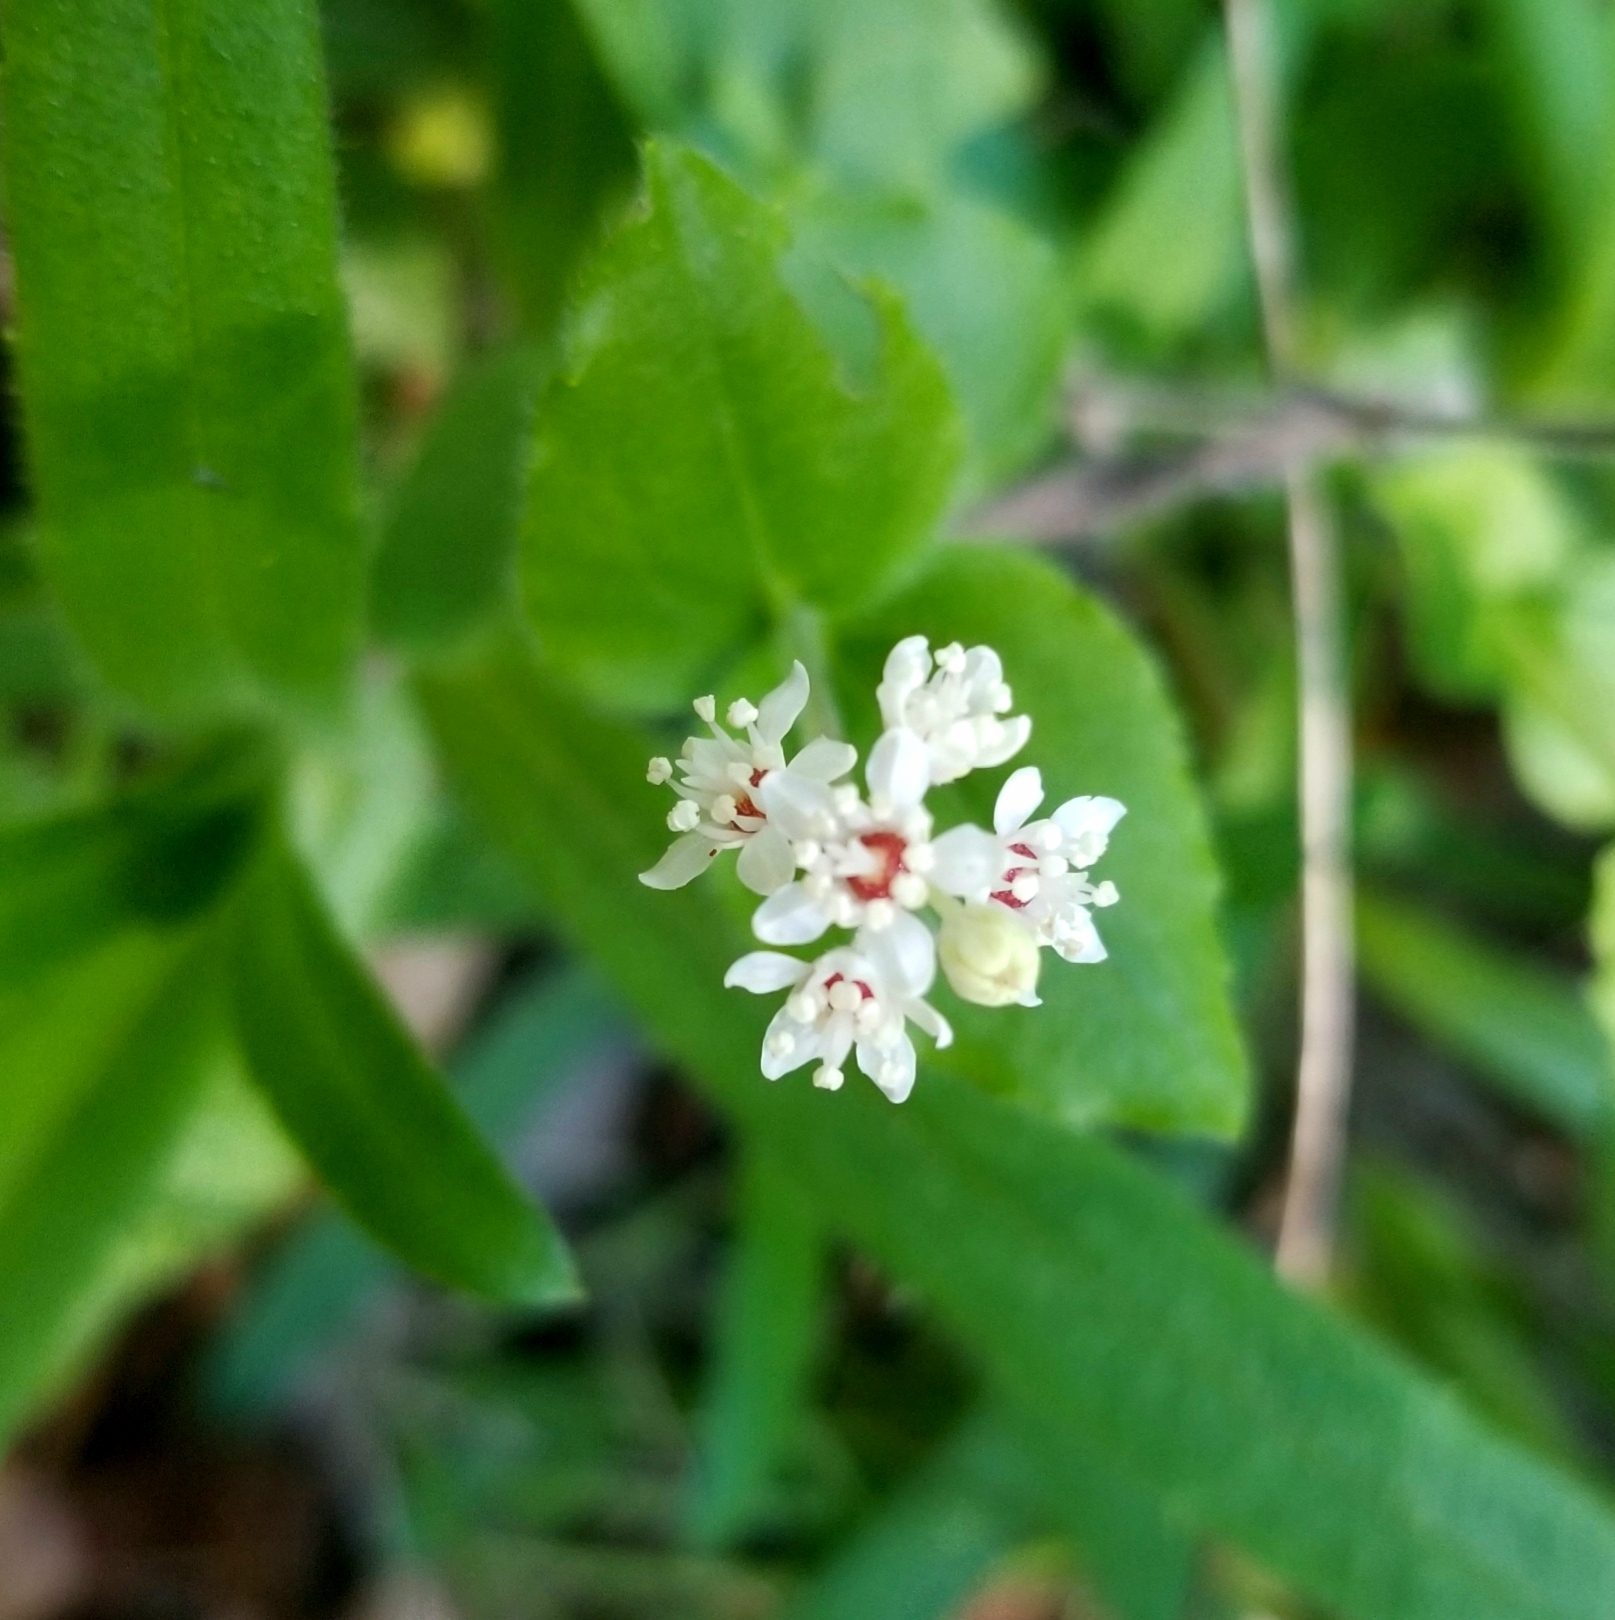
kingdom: Plantae
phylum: Tracheophyta
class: Magnoliopsida
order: Cornales
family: Hydrangeaceae
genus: Whipplea
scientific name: Whipplea modesta
